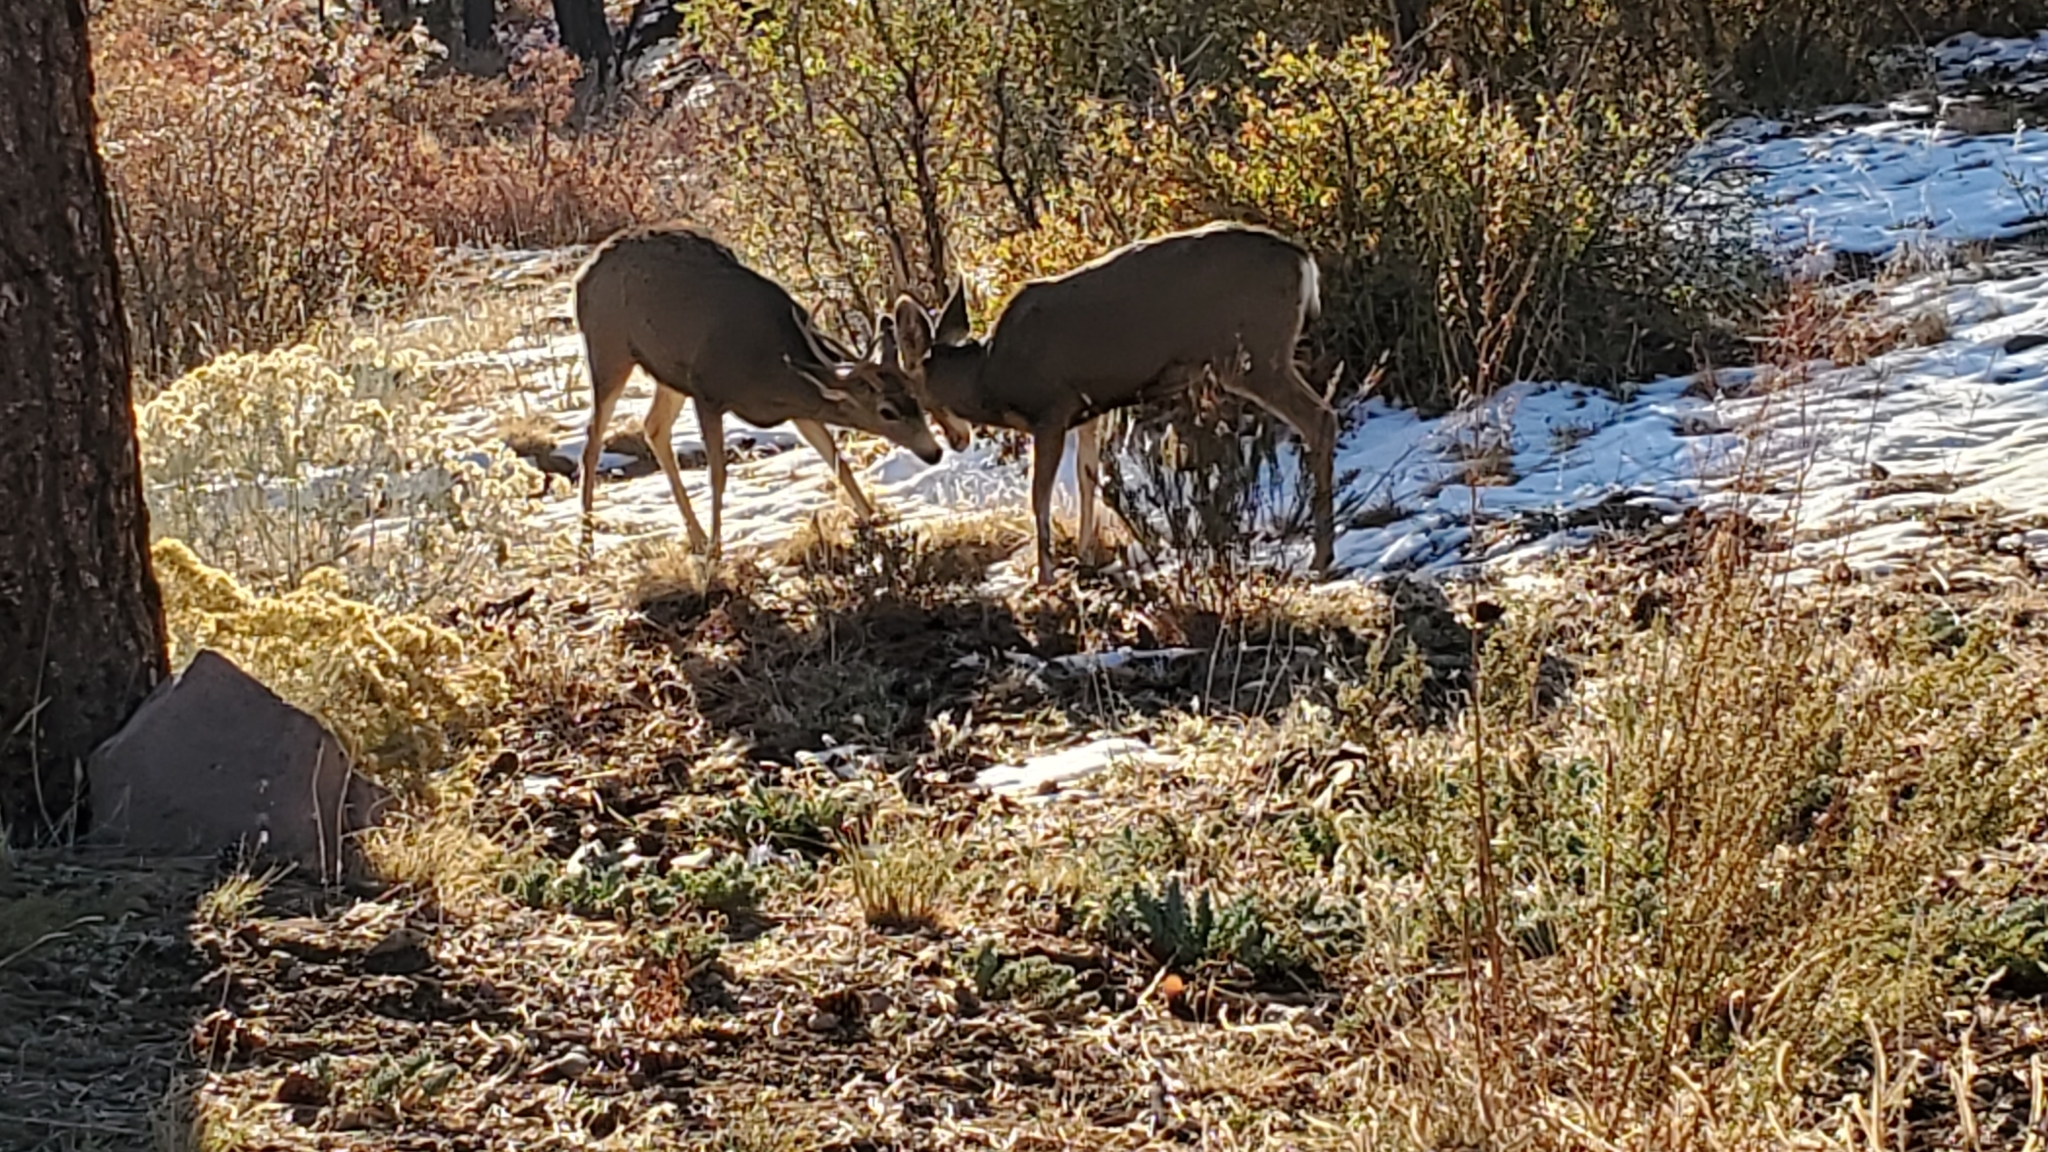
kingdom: Animalia
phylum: Chordata
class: Mammalia
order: Artiodactyla
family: Cervidae
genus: Odocoileus
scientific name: Odocoileus hemionus
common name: Mule deer
